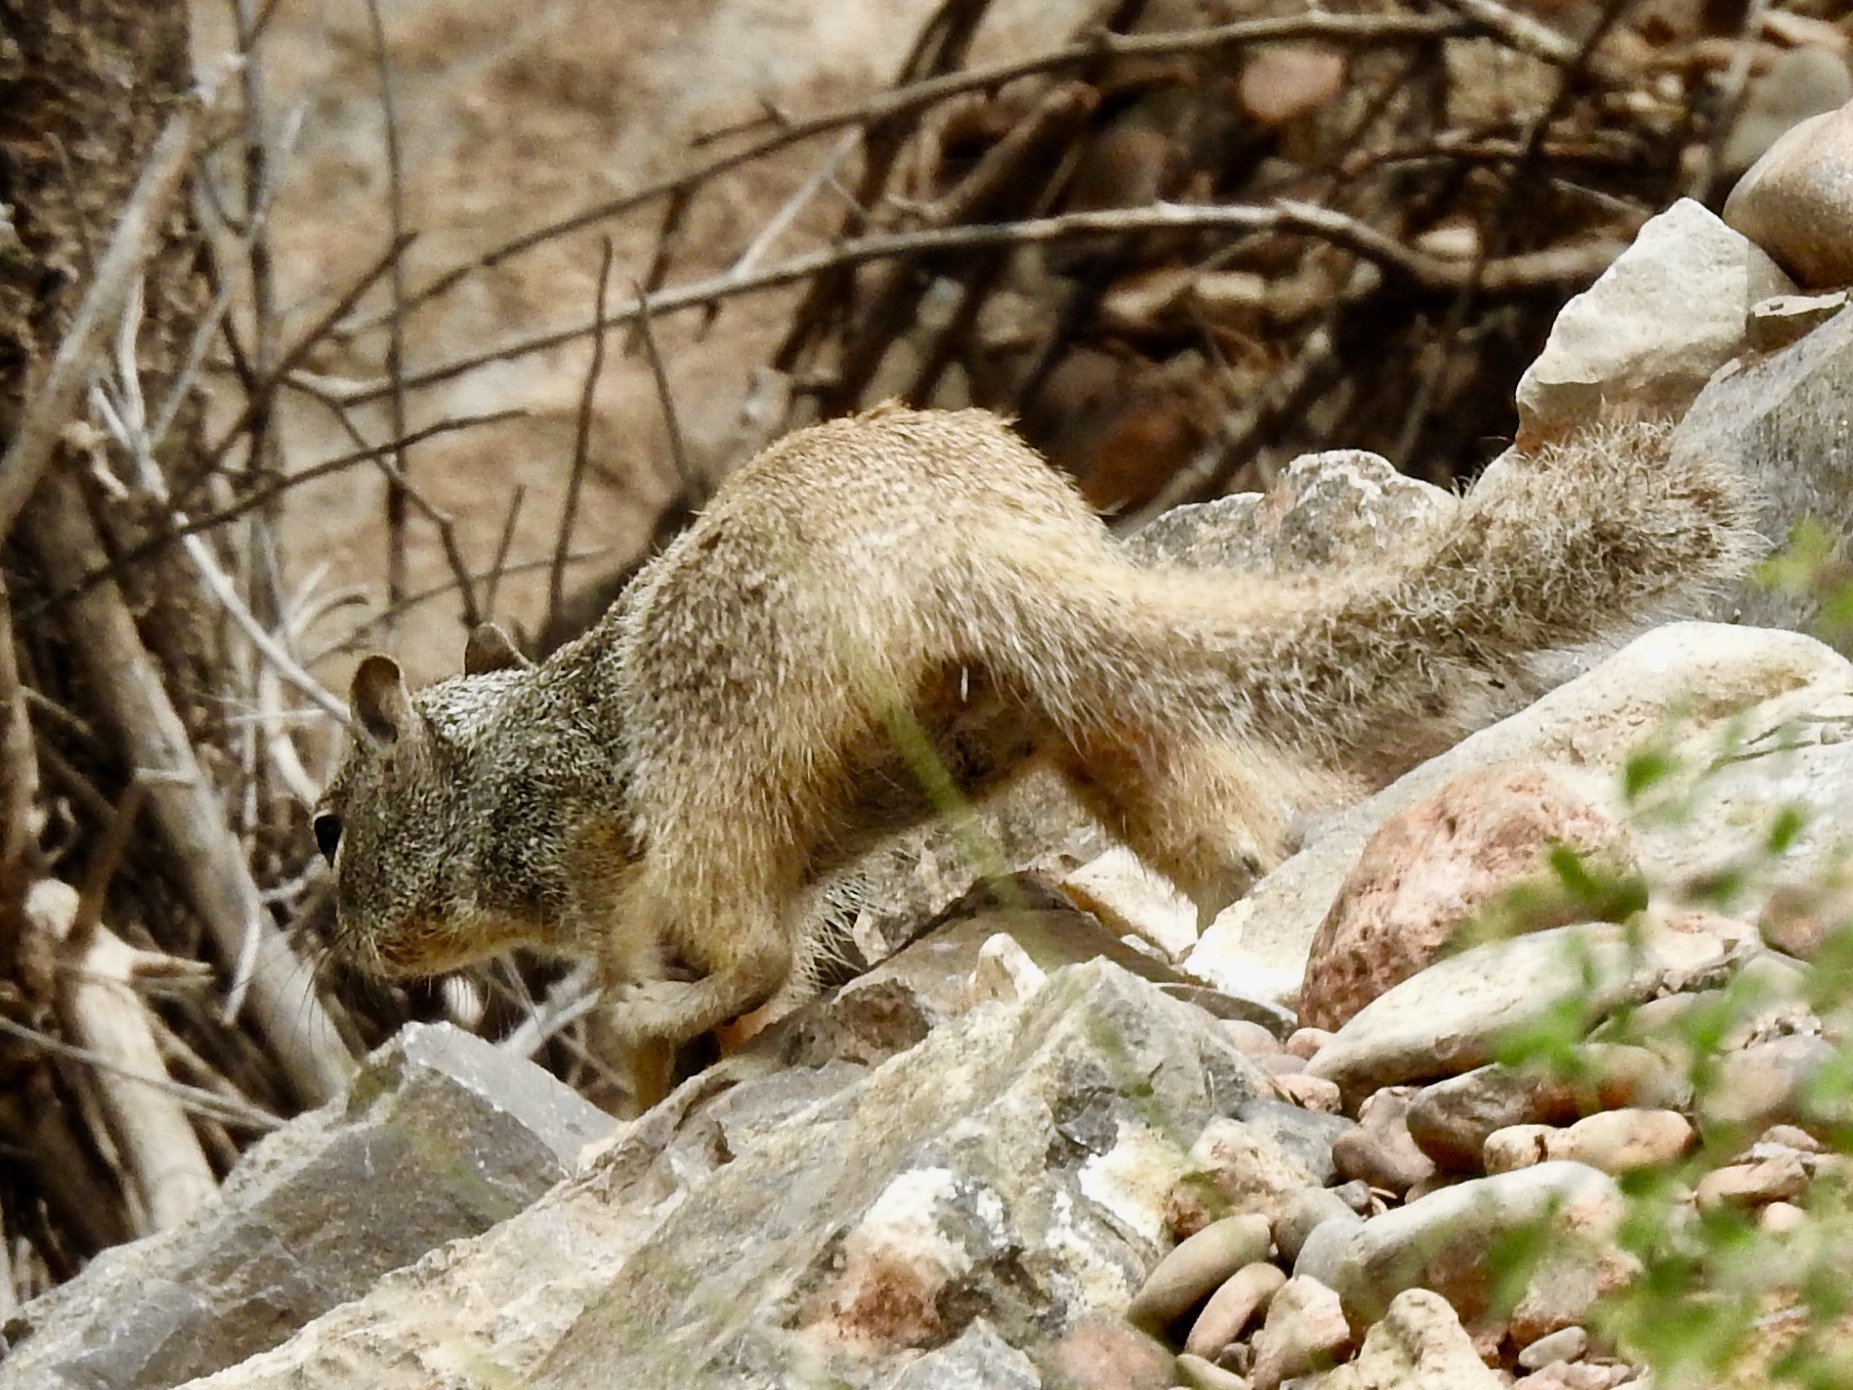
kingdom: Animalia
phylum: Chordata
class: Mammalia
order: Rodentia
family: Sciuridae
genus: Otospermophilus
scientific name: Otospermophilus variegatus
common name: Rock squirrel
